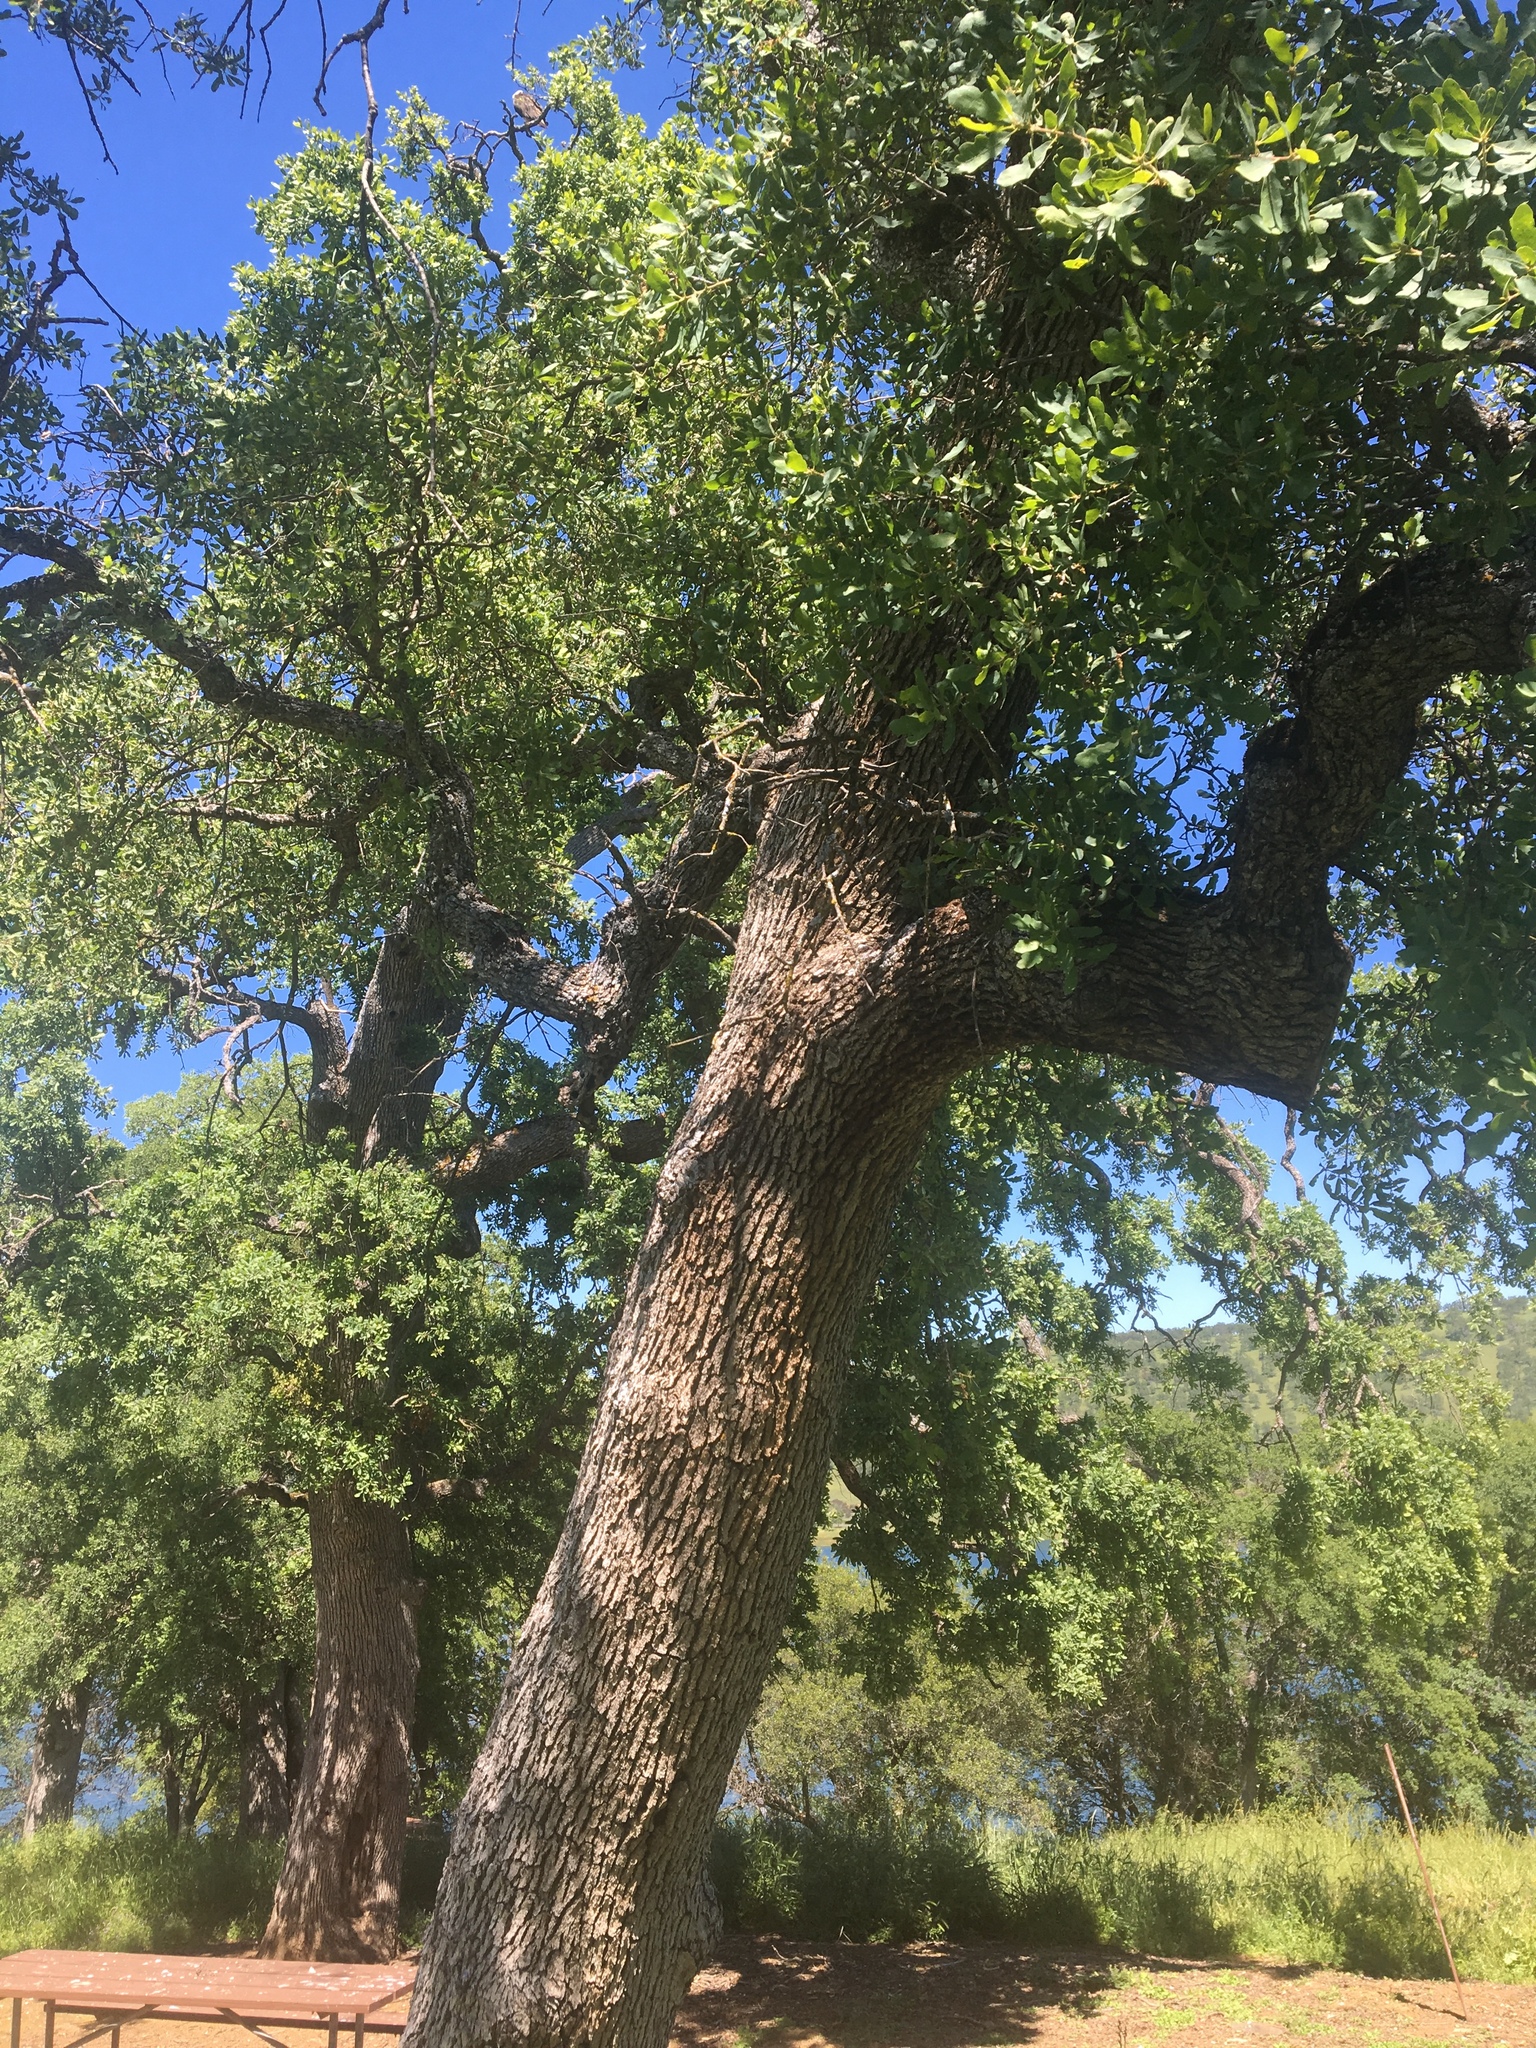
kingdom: Plantae
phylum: Tracheophyta
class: Magnoliopsida
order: Fagales
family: Fagaceae
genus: Quercus
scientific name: Quercus douglasii
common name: Blue oak
